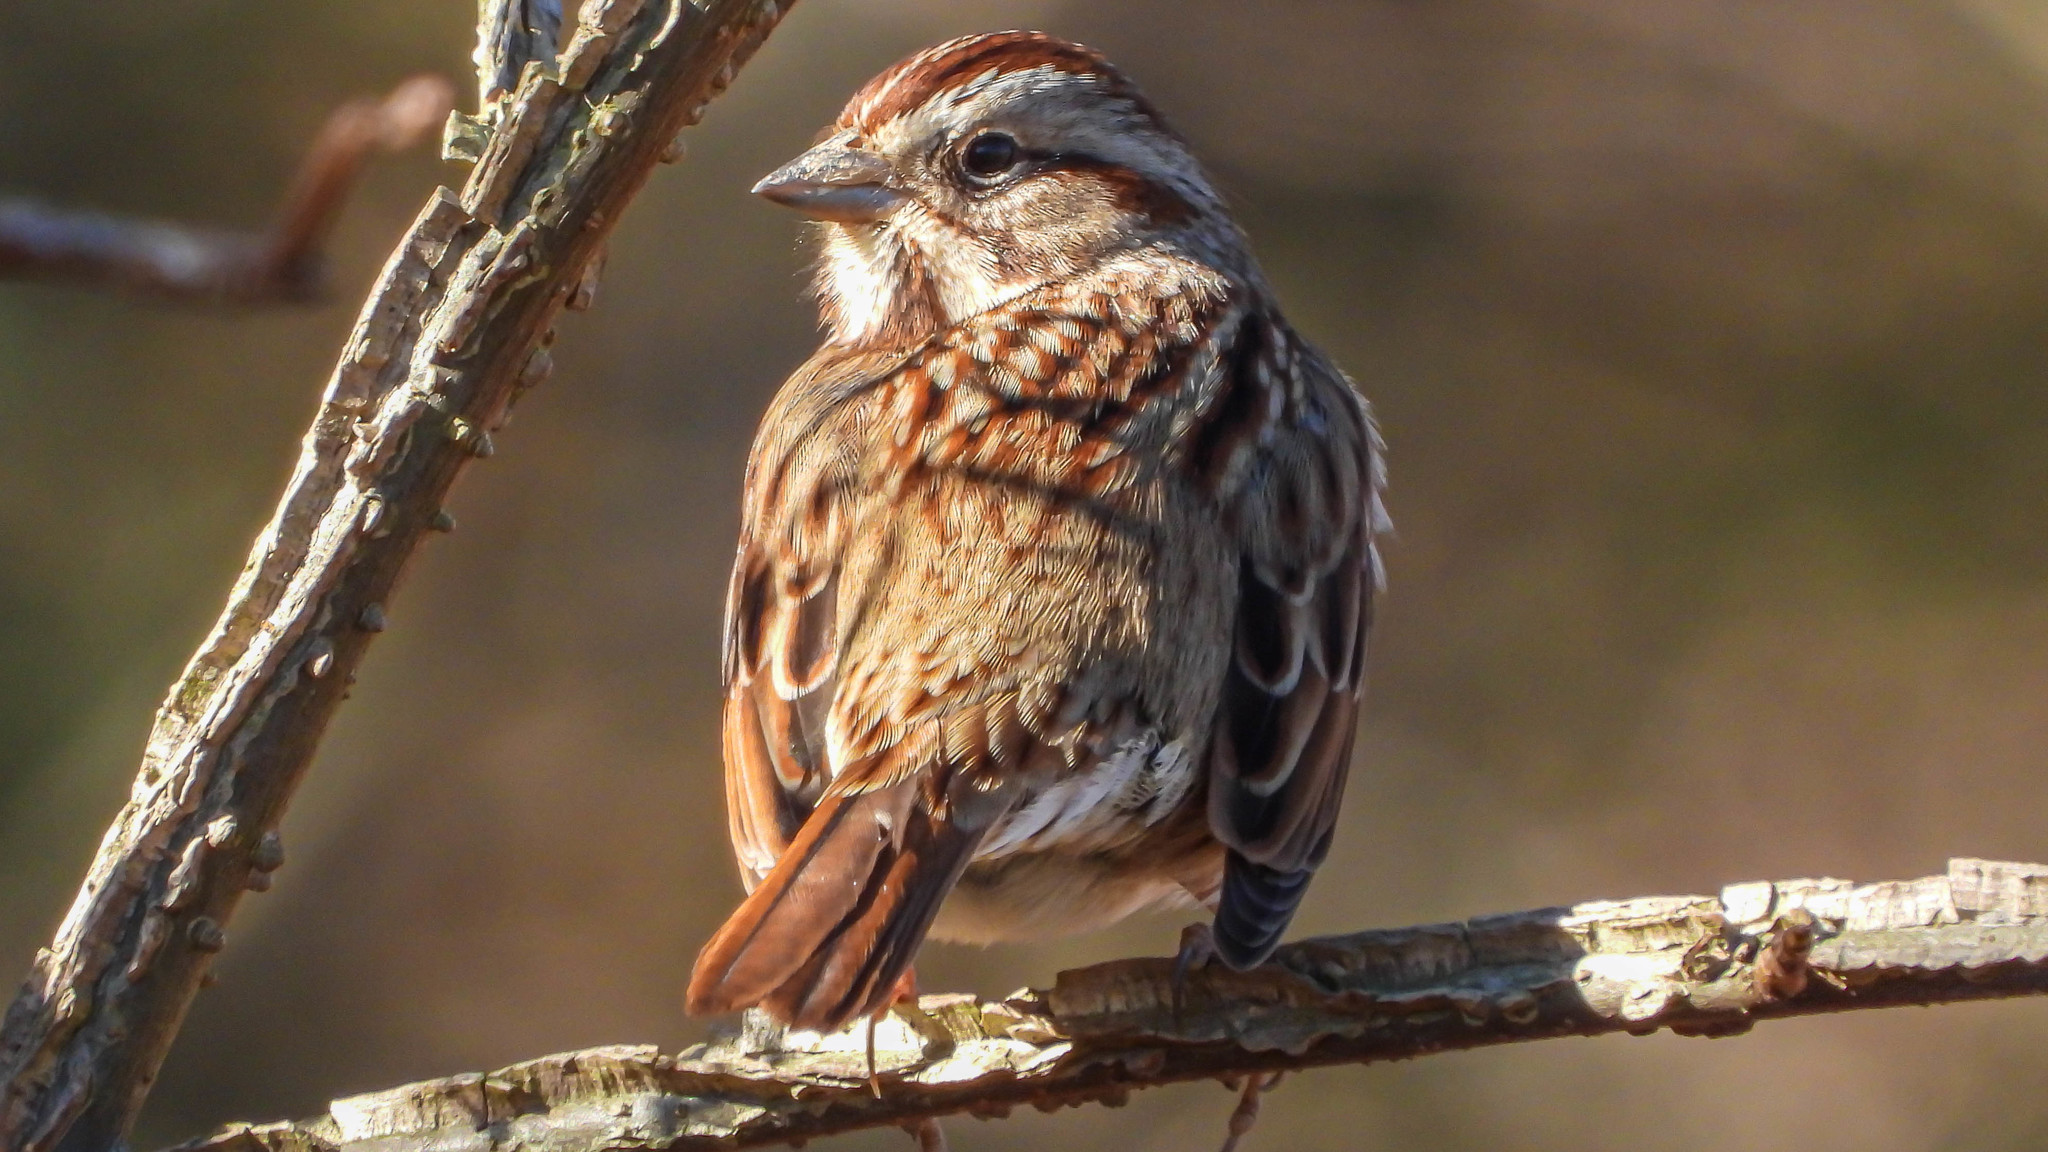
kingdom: Animalia
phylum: Chordata
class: Aves
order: Passeriformes
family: Passerellidae
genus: Melospiza
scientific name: Melospiza melodia
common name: Song sparrow
